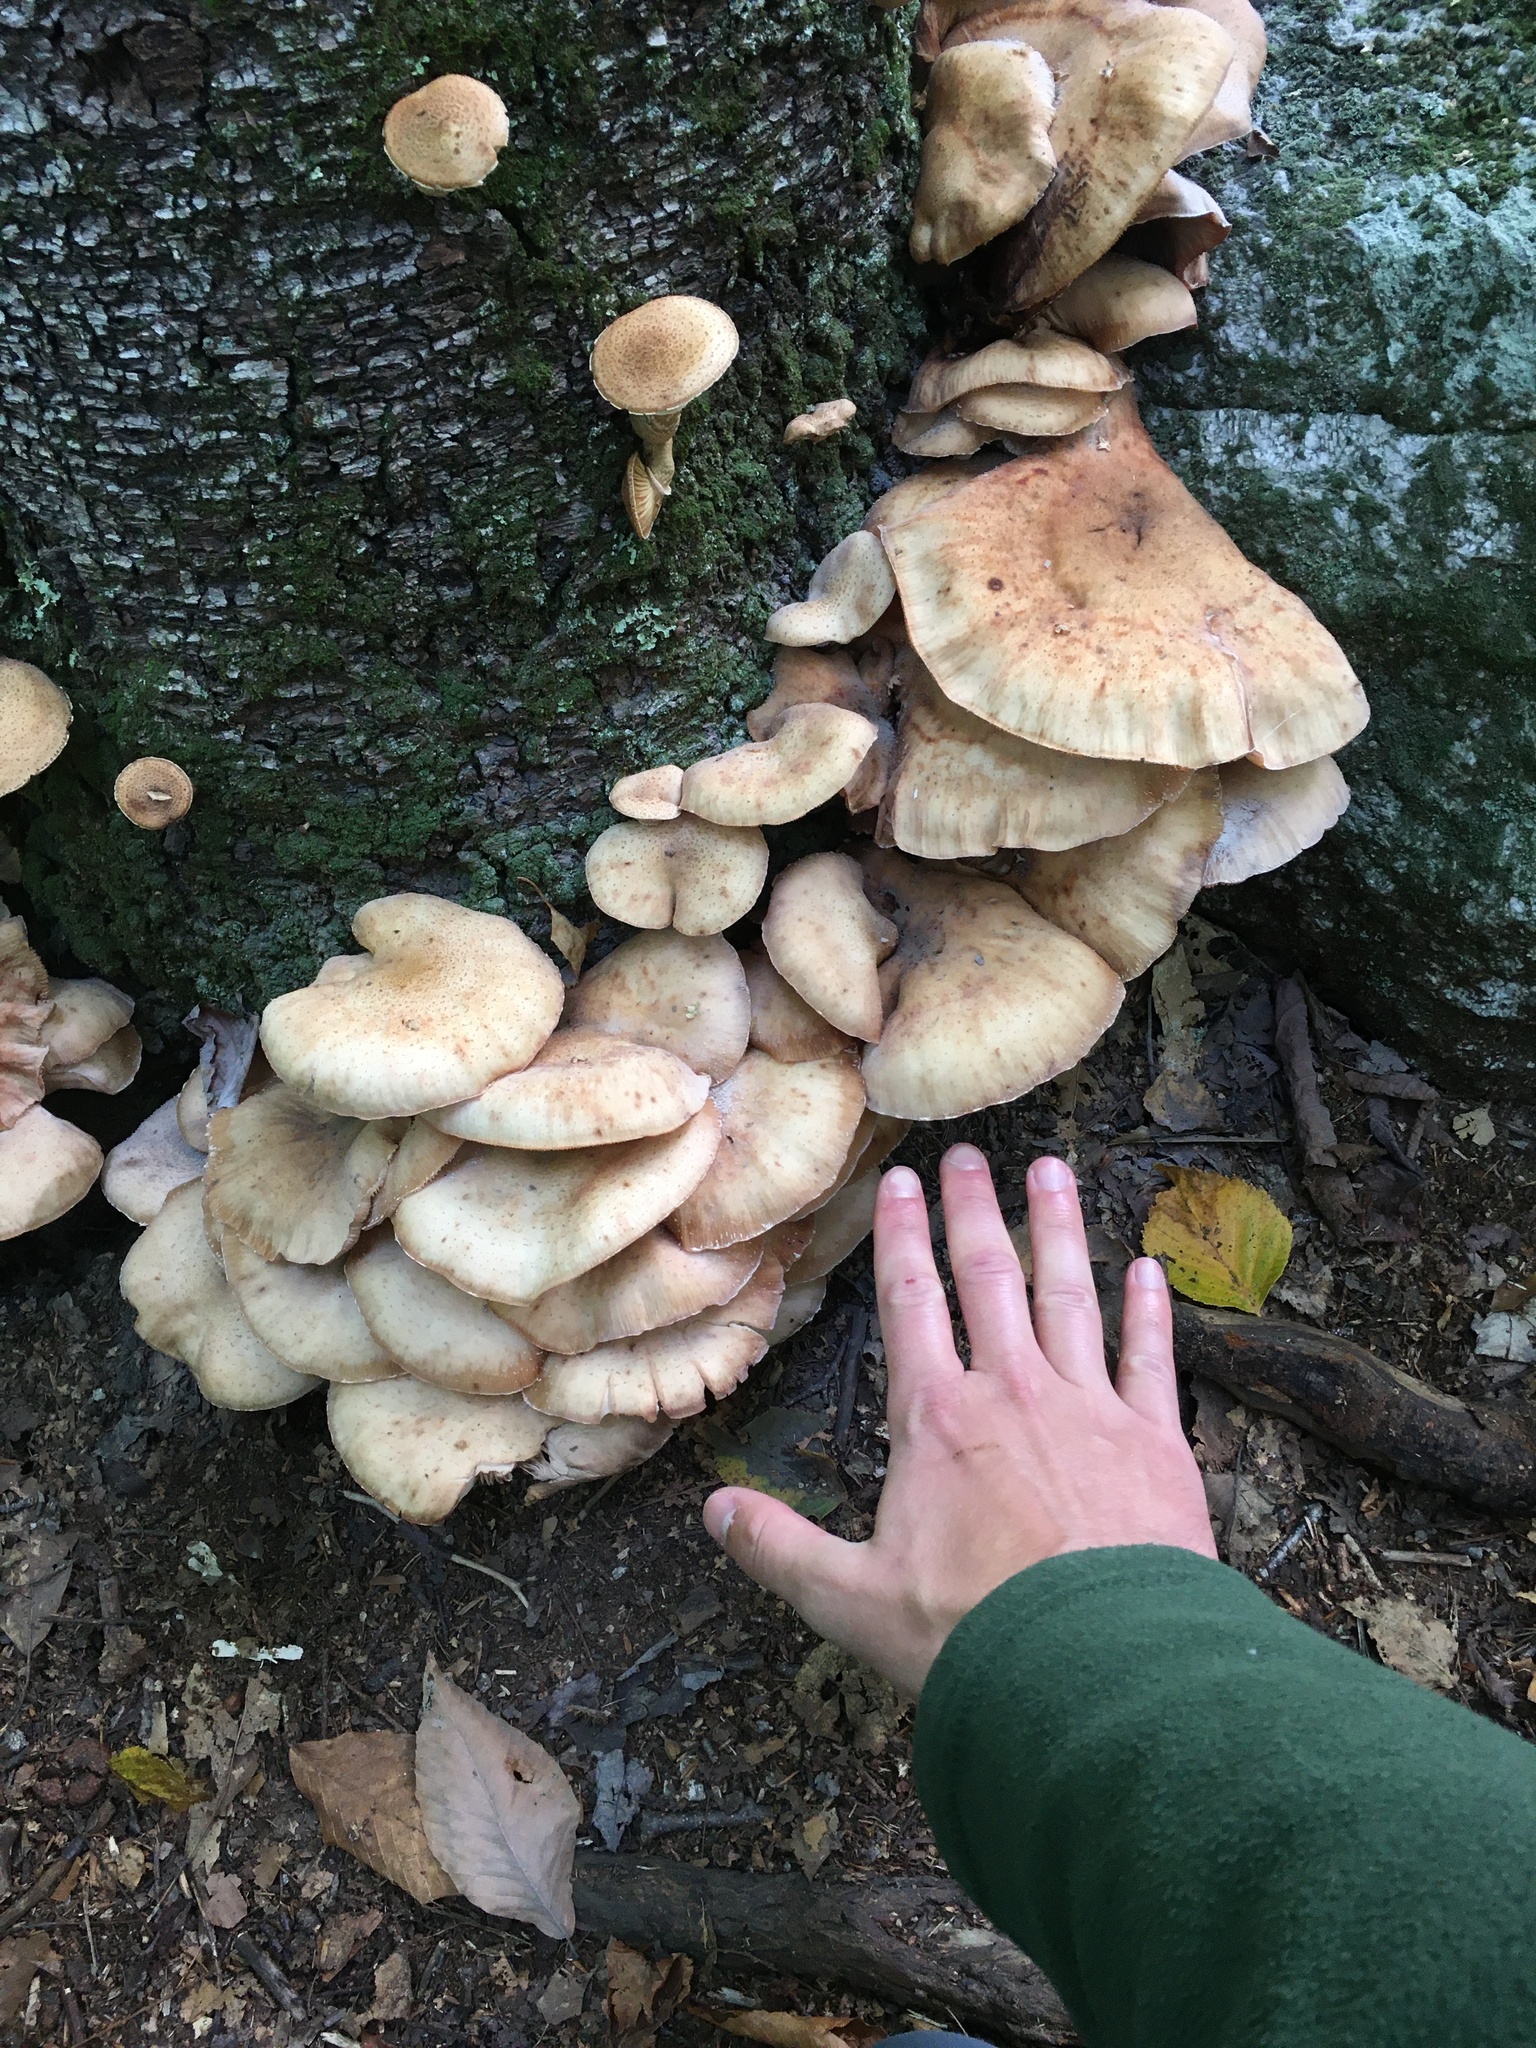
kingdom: Fungi
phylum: Basidiomycota
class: Agaricomycetes
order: Agaricales
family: Physalacriaceae
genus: Armillaria
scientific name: Armillaria mellea
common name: Honey fungus
